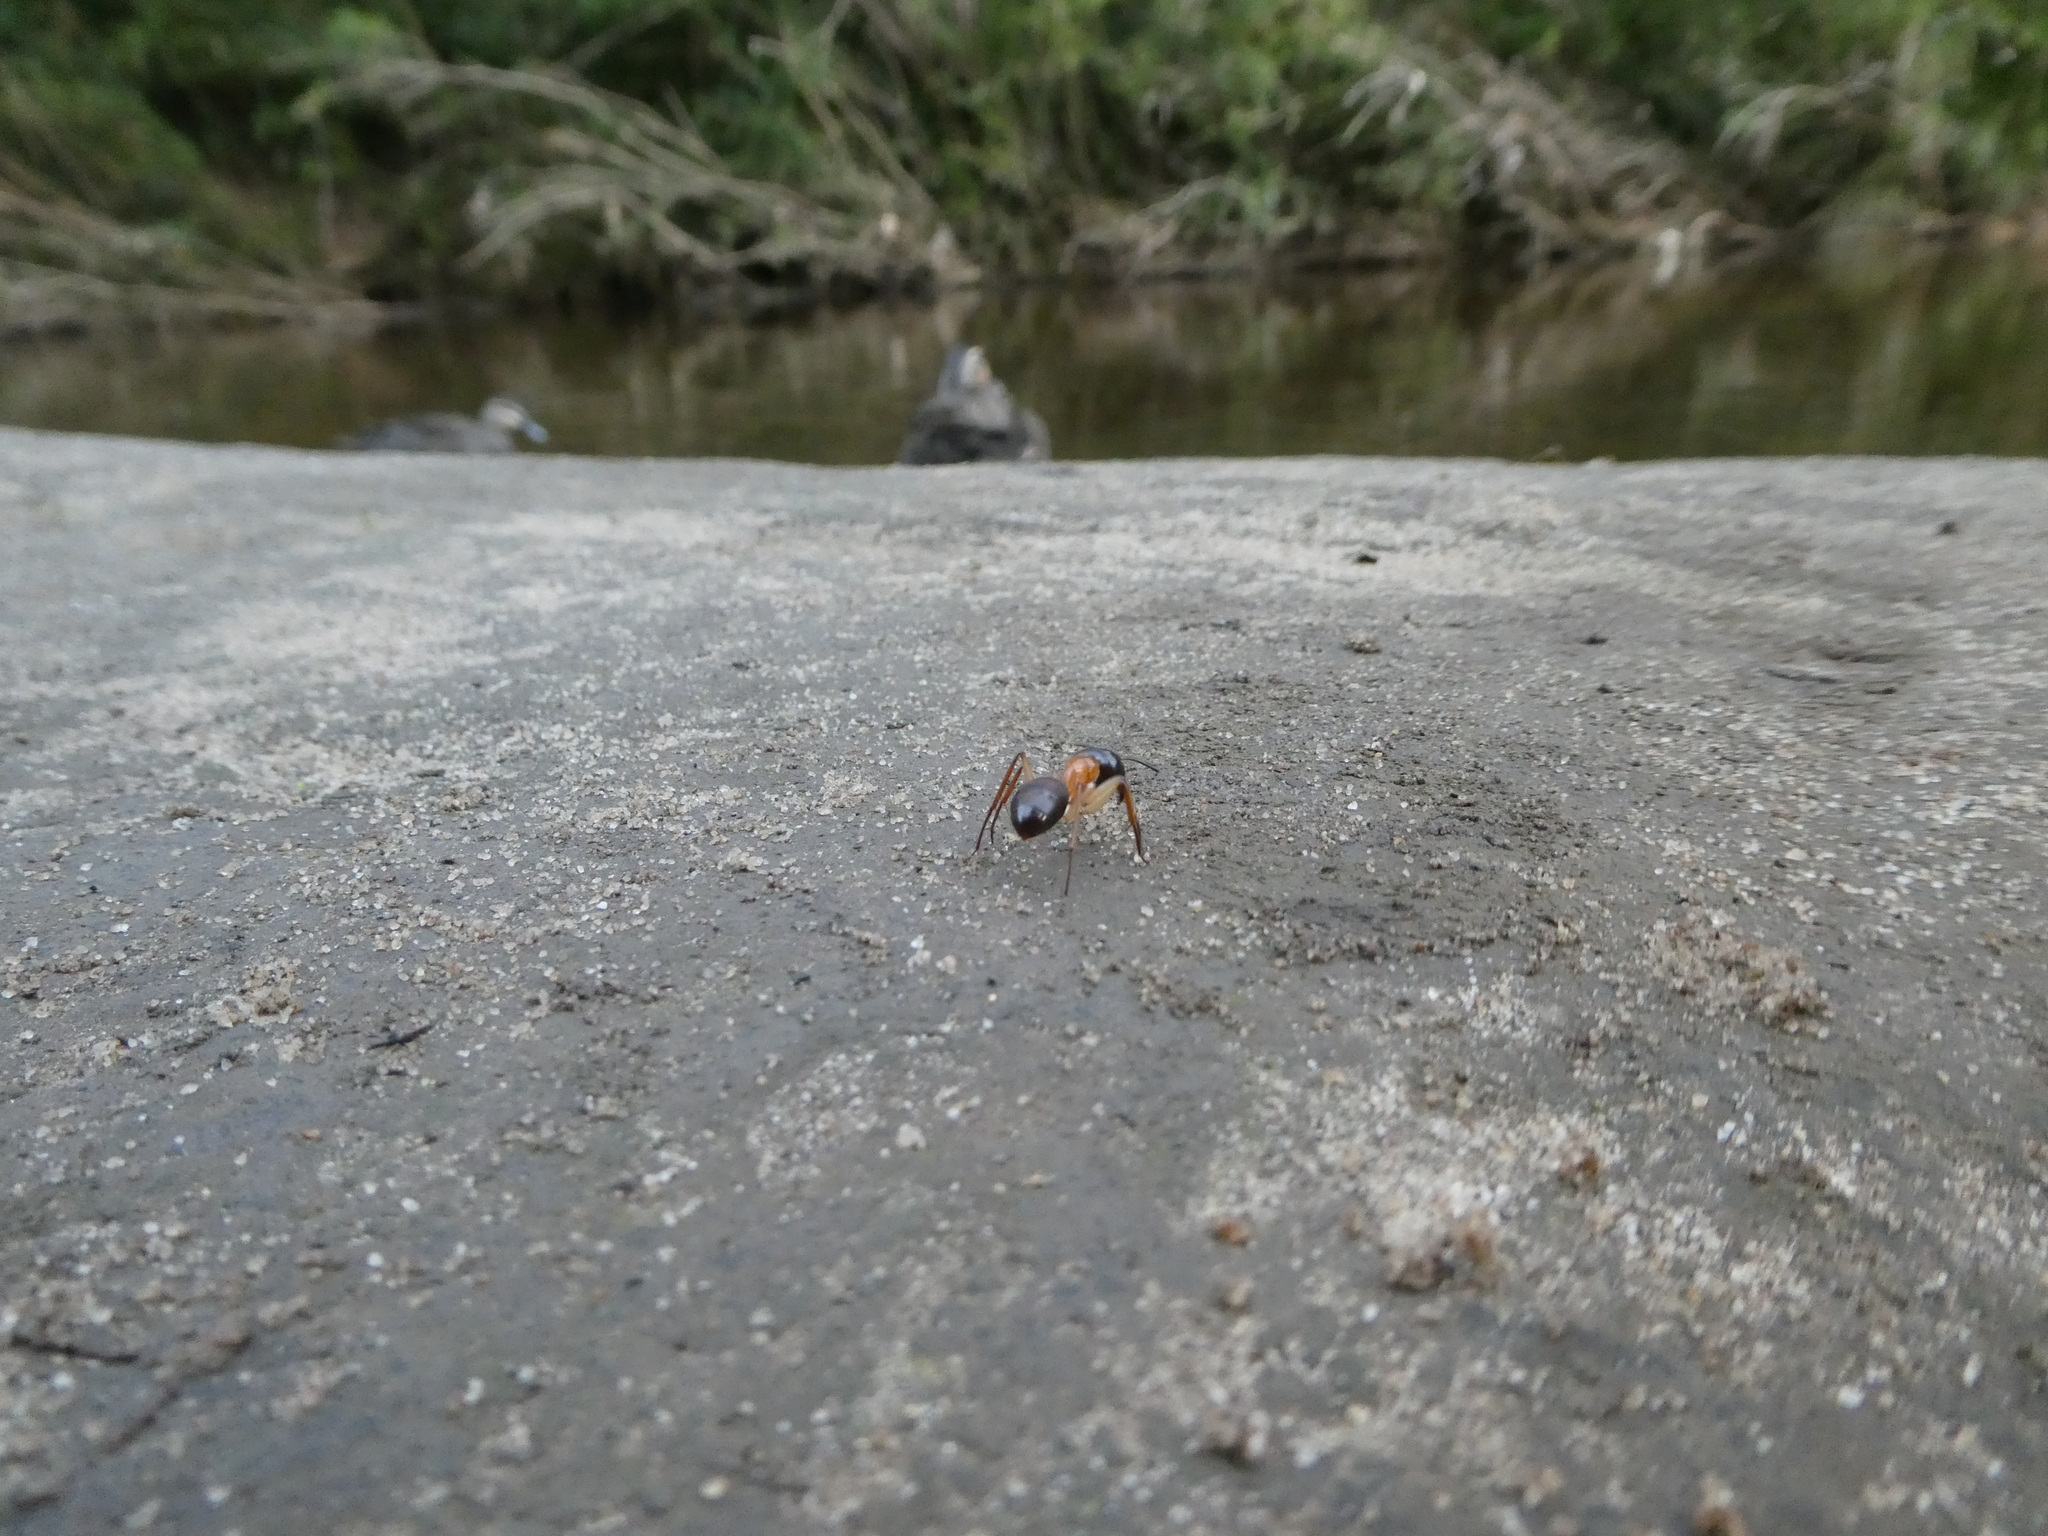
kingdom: Animalia
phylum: Arthropoda
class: Insecta
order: Hymenoptera
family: Formicidae
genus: Camponotus
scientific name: Camponotus nigriceps
